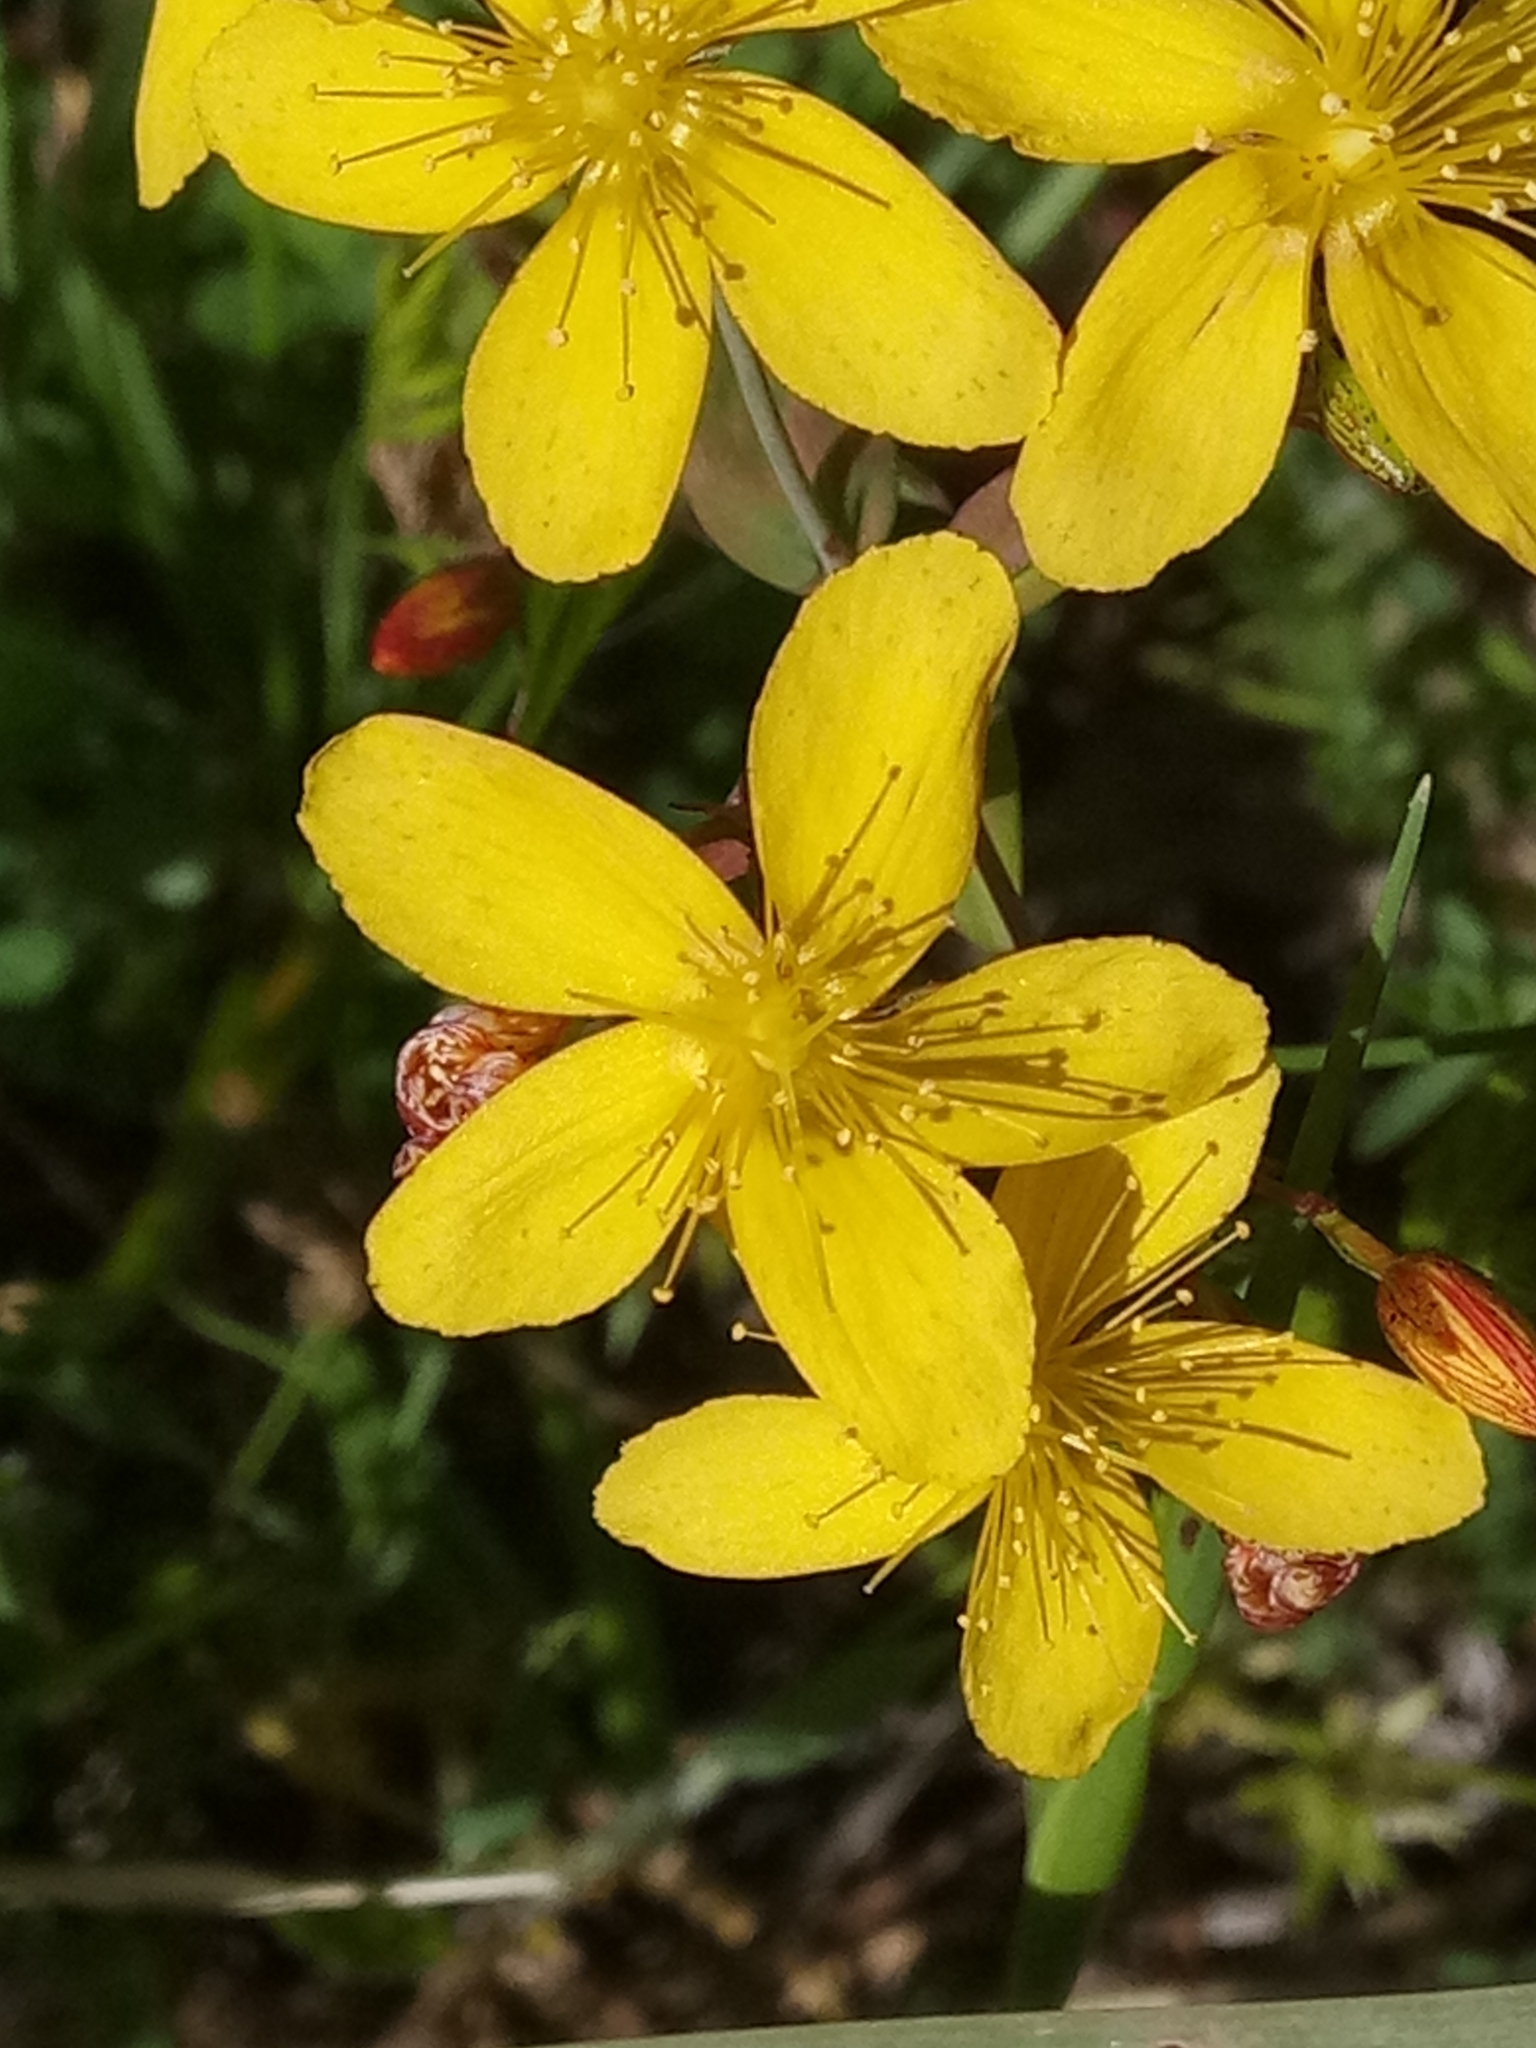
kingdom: Plantae
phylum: Tracheophyta
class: Magnoliopsida
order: Malpighiales
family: Hypericaceae
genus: Hypericum
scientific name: Hypericum australe
